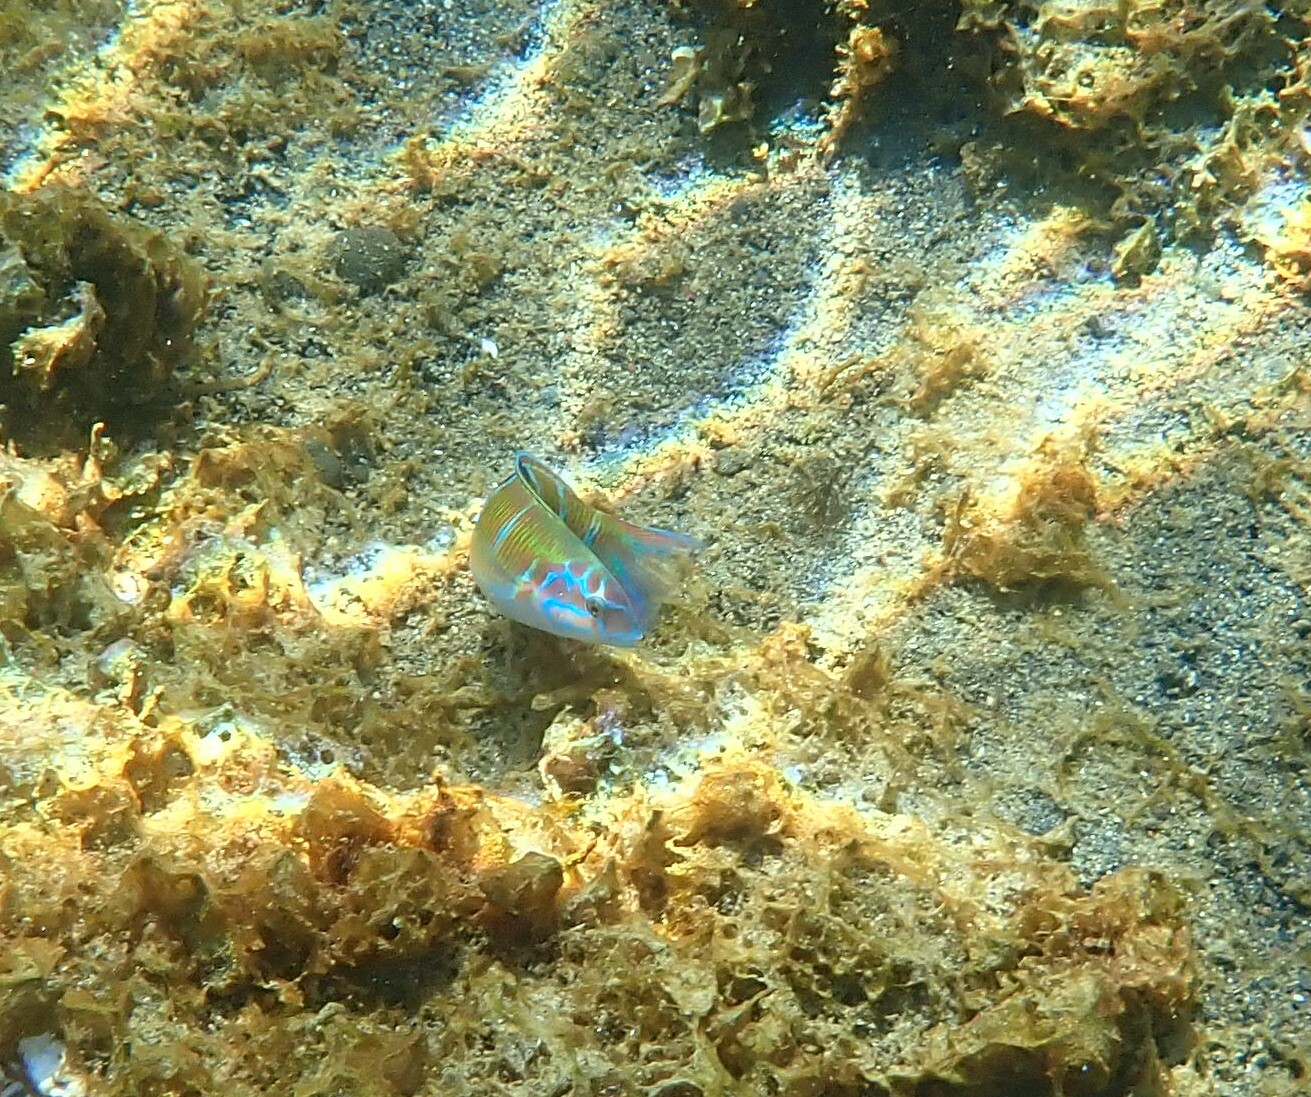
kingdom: Animalia
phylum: Chordata
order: Perciformes
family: Labridae
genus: Thalassoma
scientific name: Thalassoma pavo
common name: Ornate wrasse
